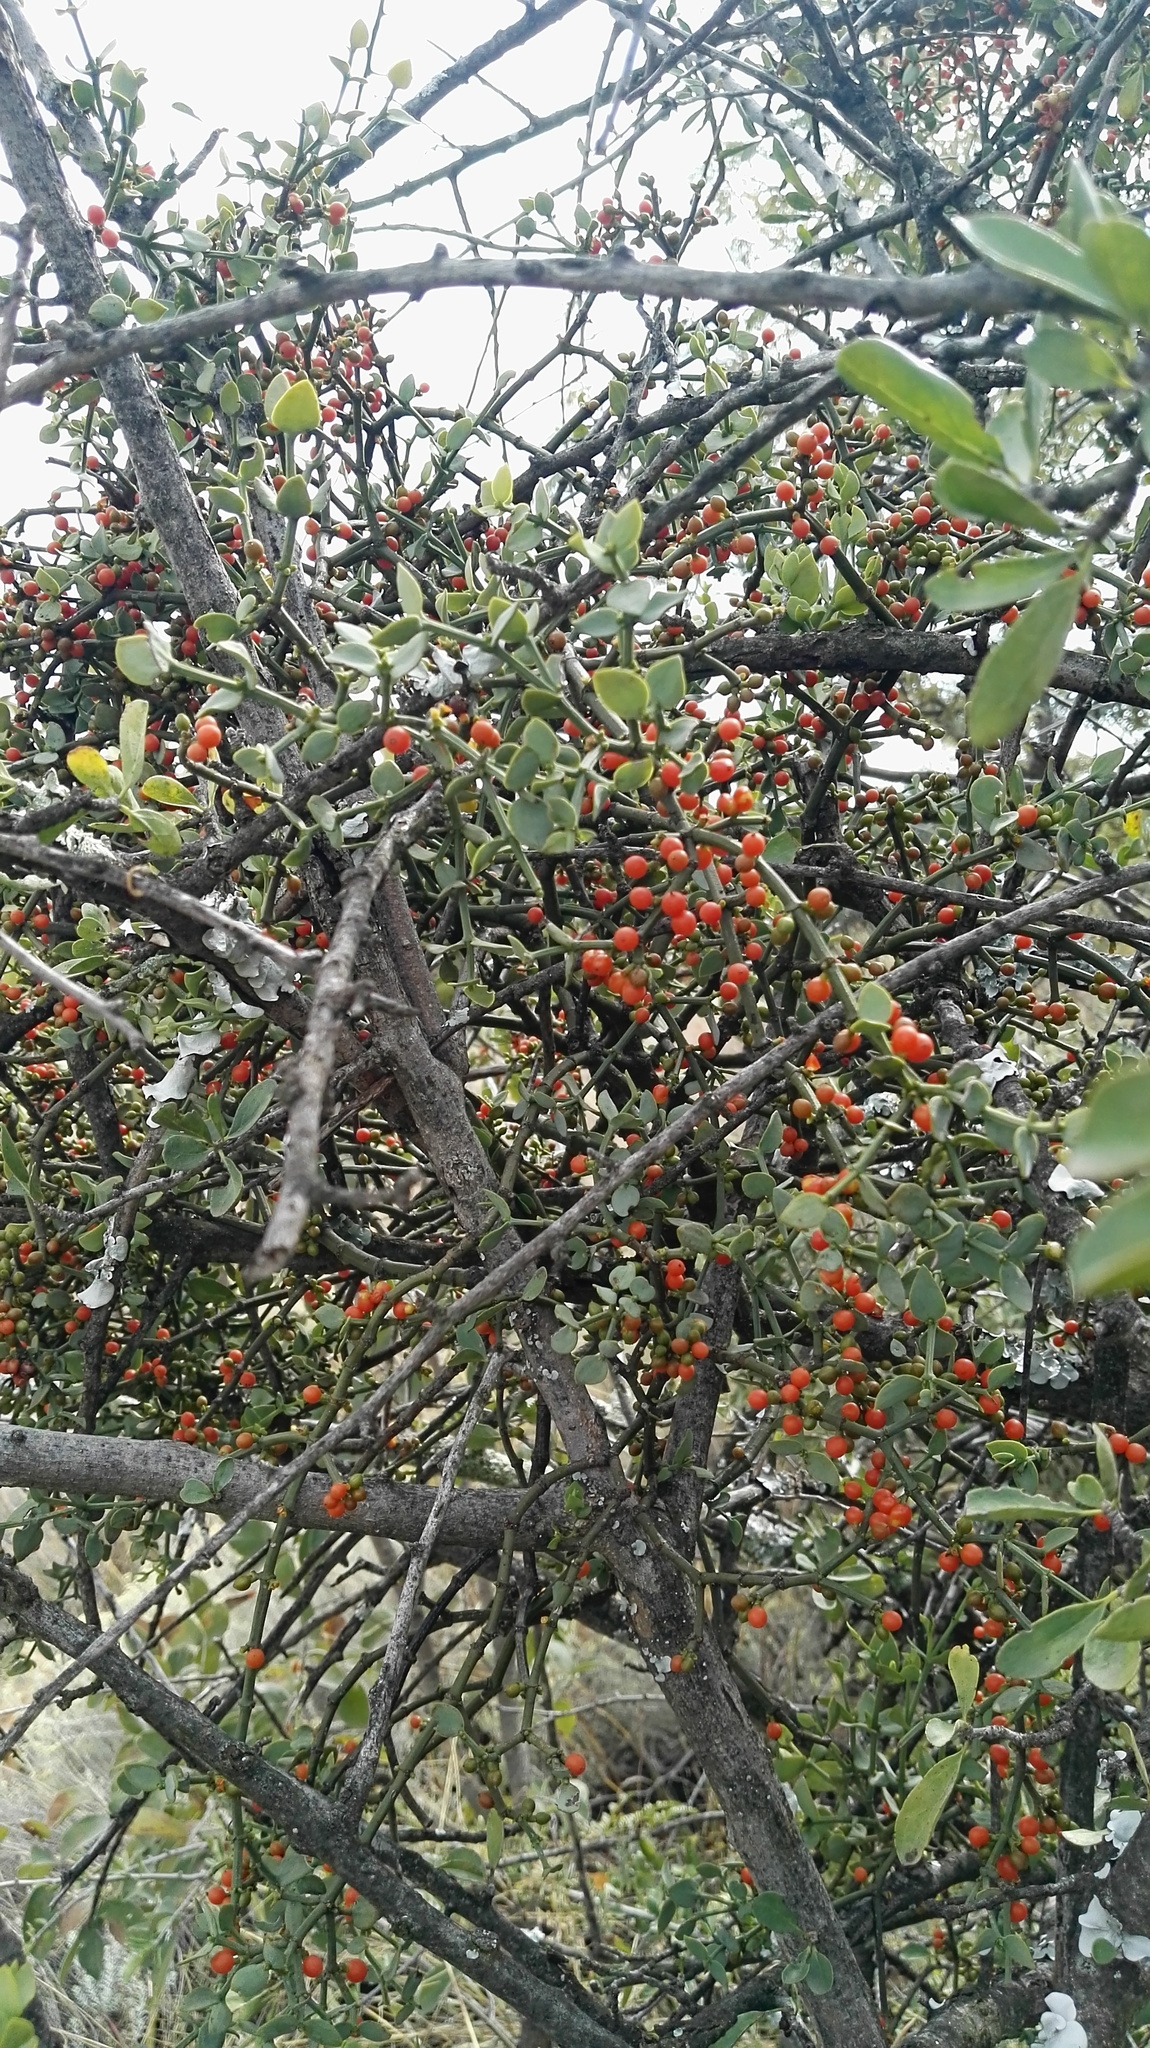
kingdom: Plantae
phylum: Tracheophyta
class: Magnoliopsida
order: Santalales
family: Viscaceae
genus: Viscum
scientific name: Viscum rotundifolium
